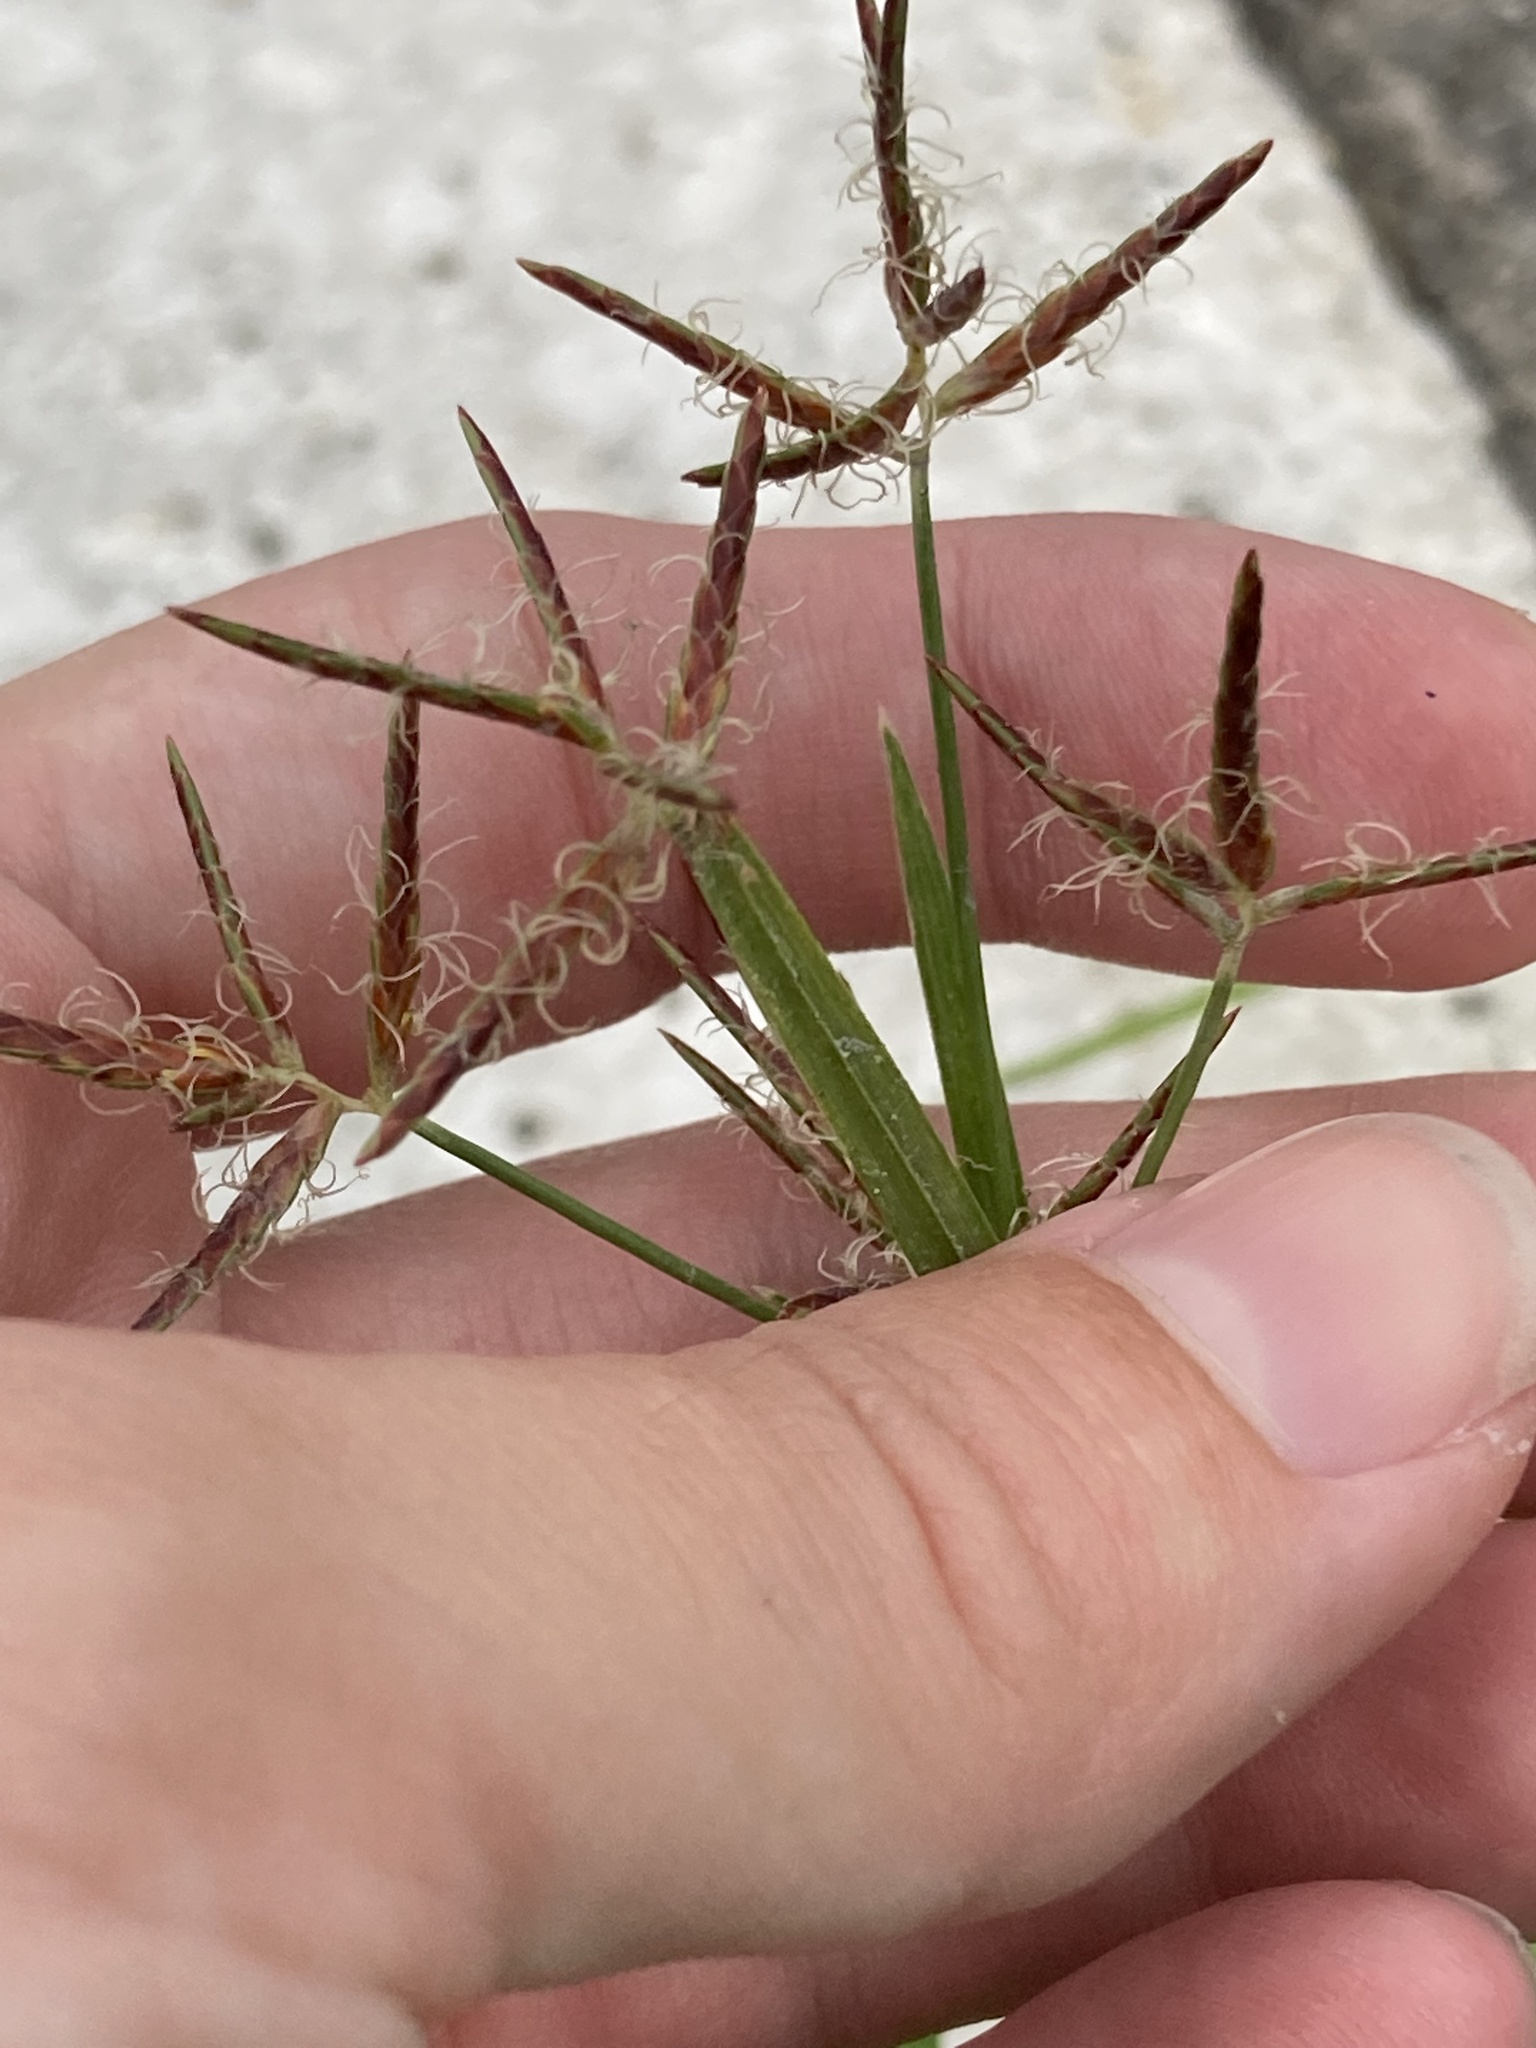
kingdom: Plantae
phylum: Tracheophyta
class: Liliopsida
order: Poales
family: Cyperaceae
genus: Cyperus
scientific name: Cyperus rotundus
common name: Nutgrass
